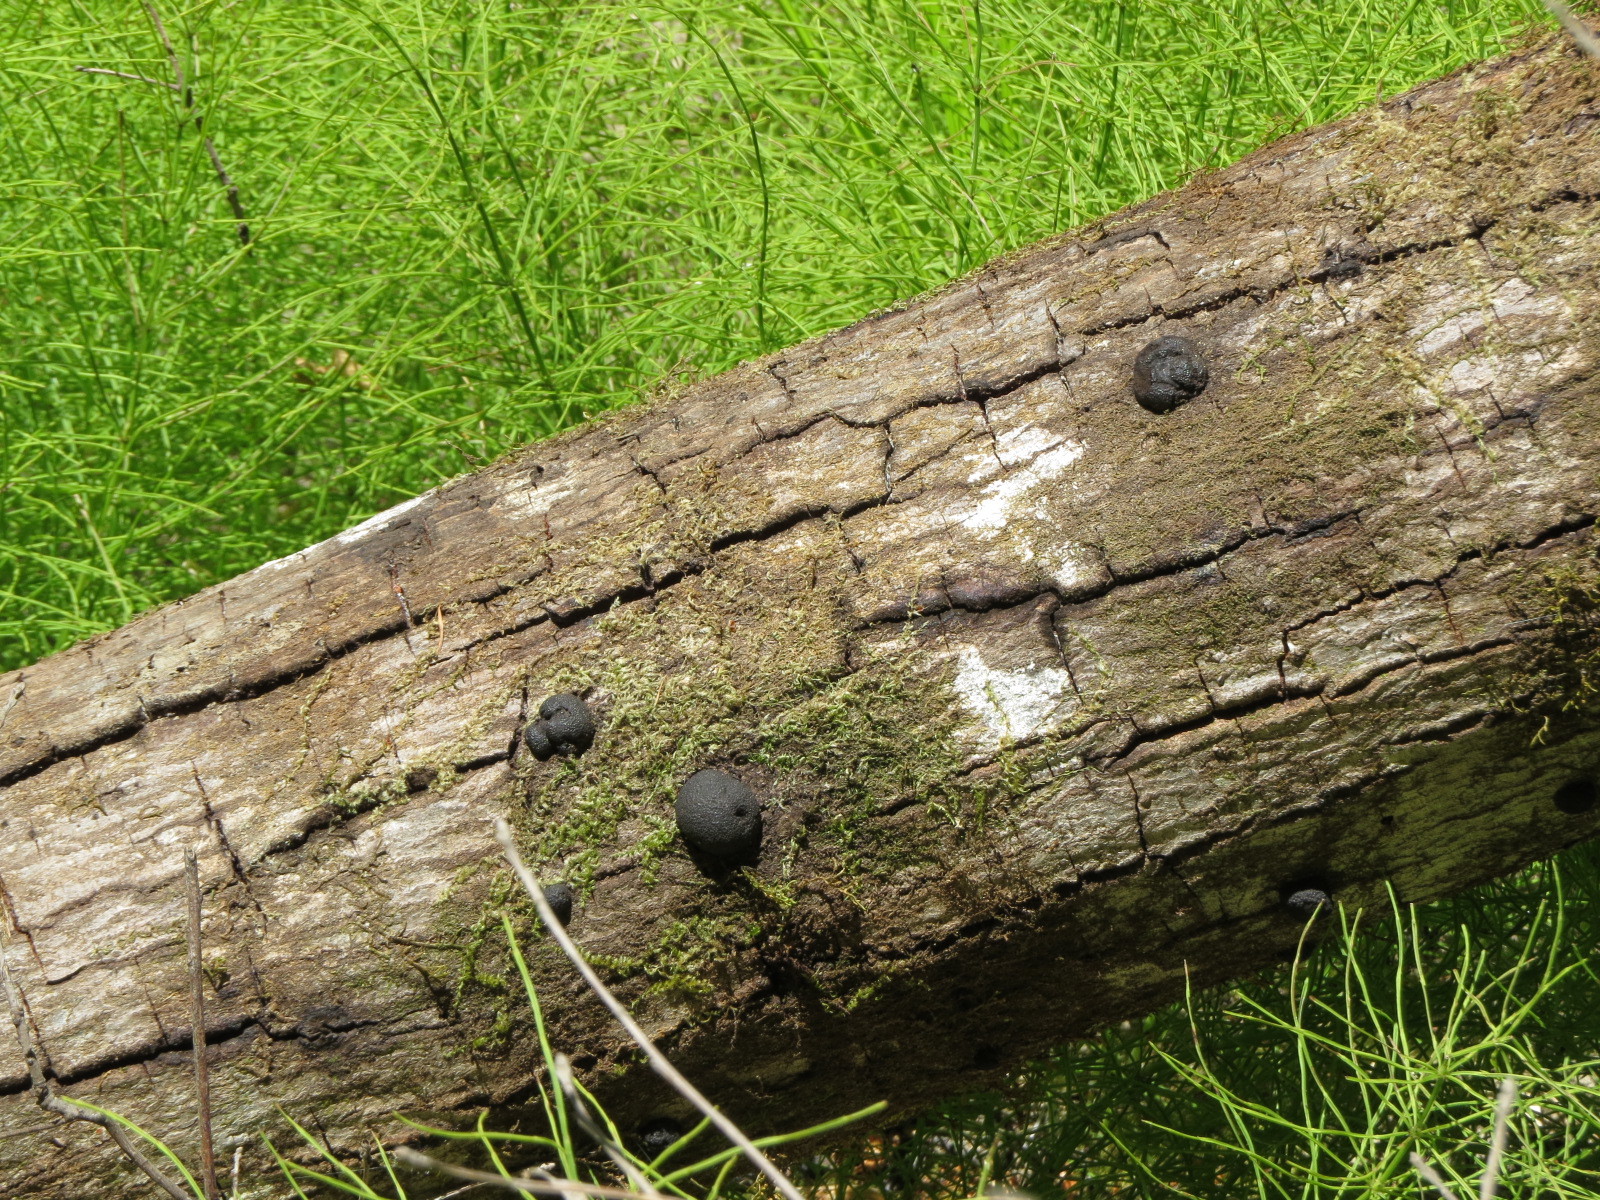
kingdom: Fungi
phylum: Ascomycota
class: Sordariomycetes
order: Xylariales
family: Hypoxylaceae
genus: Annulohypoxylon
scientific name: Annulohypoxylon thouarsianum
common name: Cramp balls
